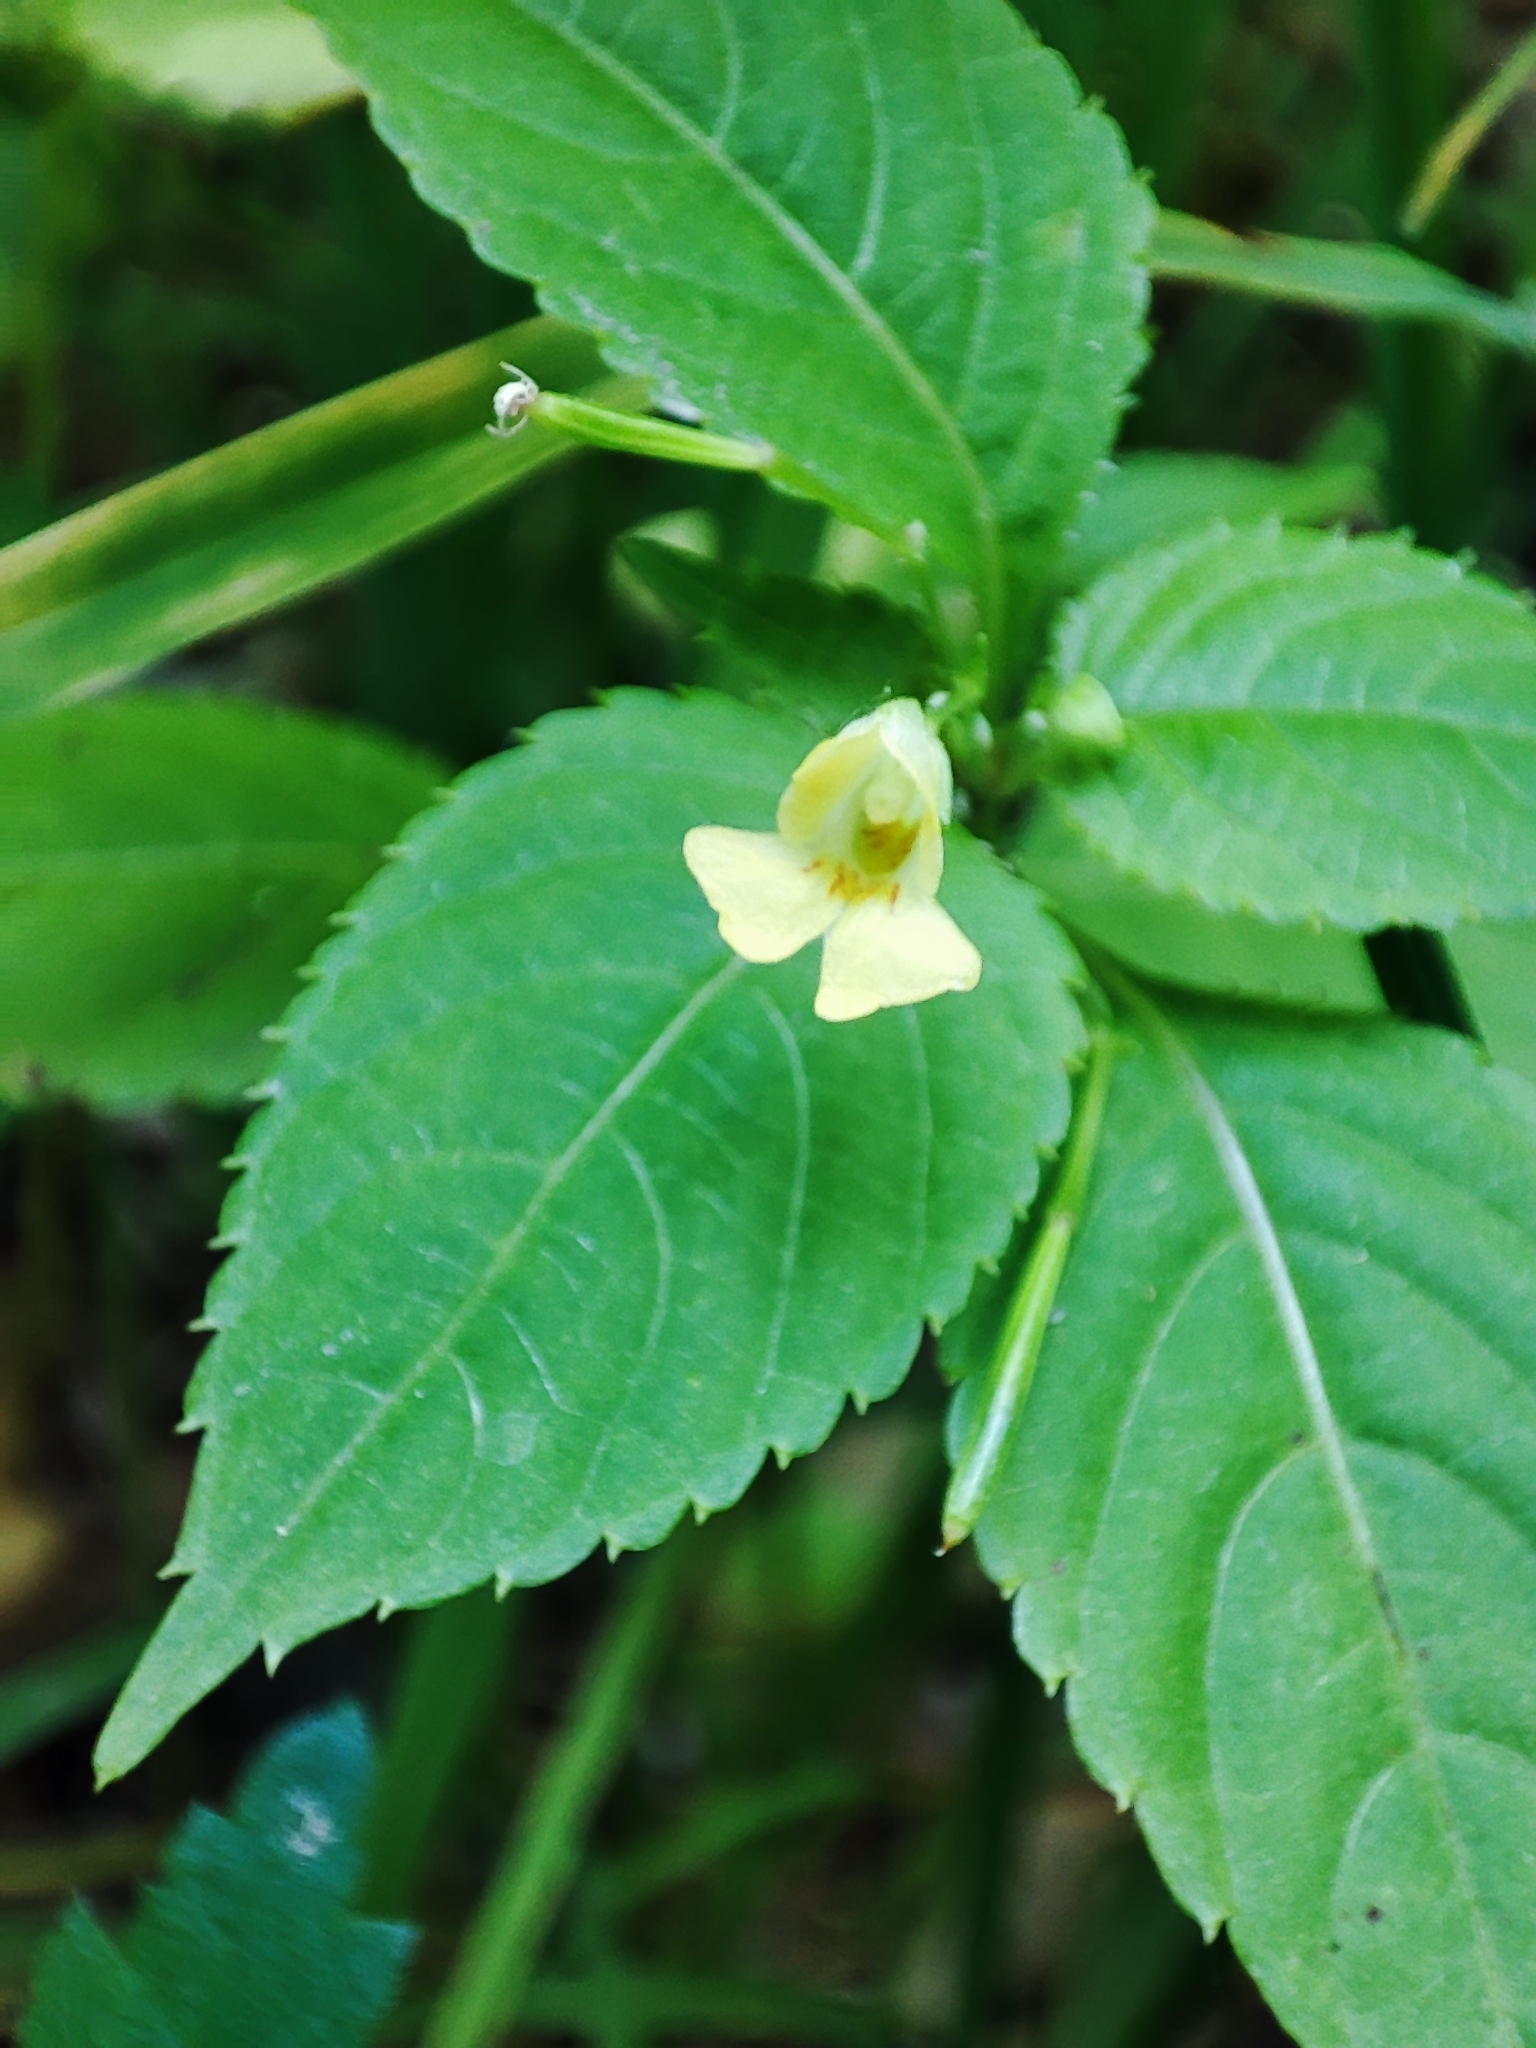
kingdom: Plantae
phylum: Tracheophyta
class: Magnoliopsida
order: Ericales
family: Balsaminaceae
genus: Impatiens
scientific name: Impatiens parviflora
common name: Small balsam
